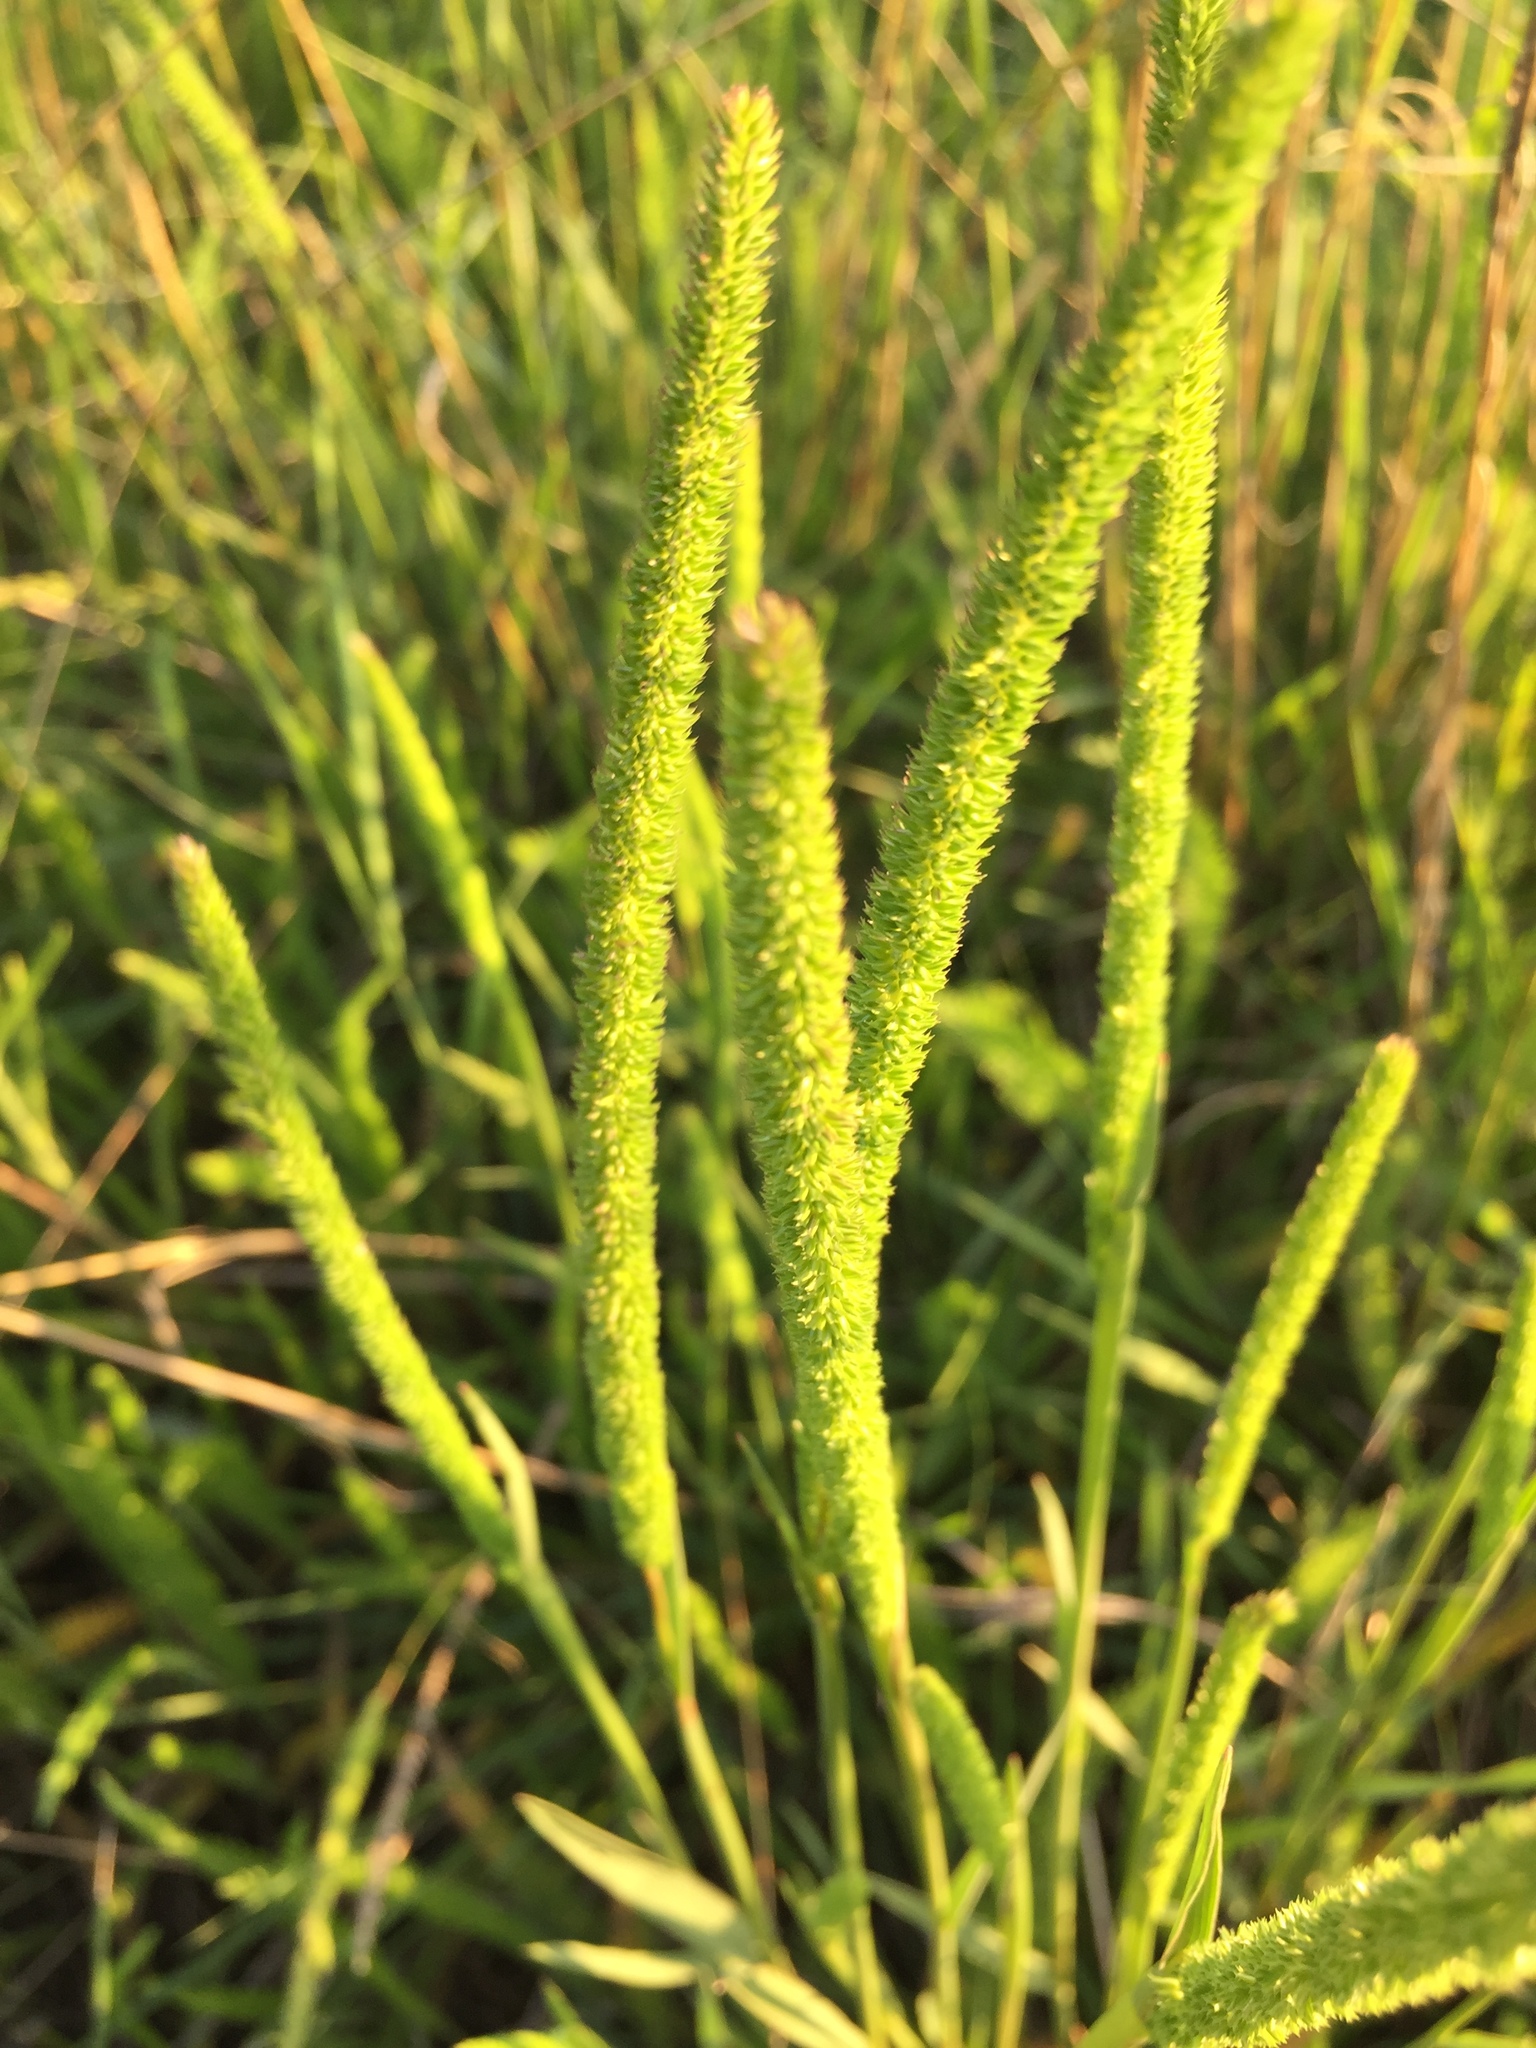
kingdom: Plantae
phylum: Tracheophyta
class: Liliopsida
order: Poales
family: Poaceae
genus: Phleum
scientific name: Phleum phleoides
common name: Purple-stem cat's-tail
